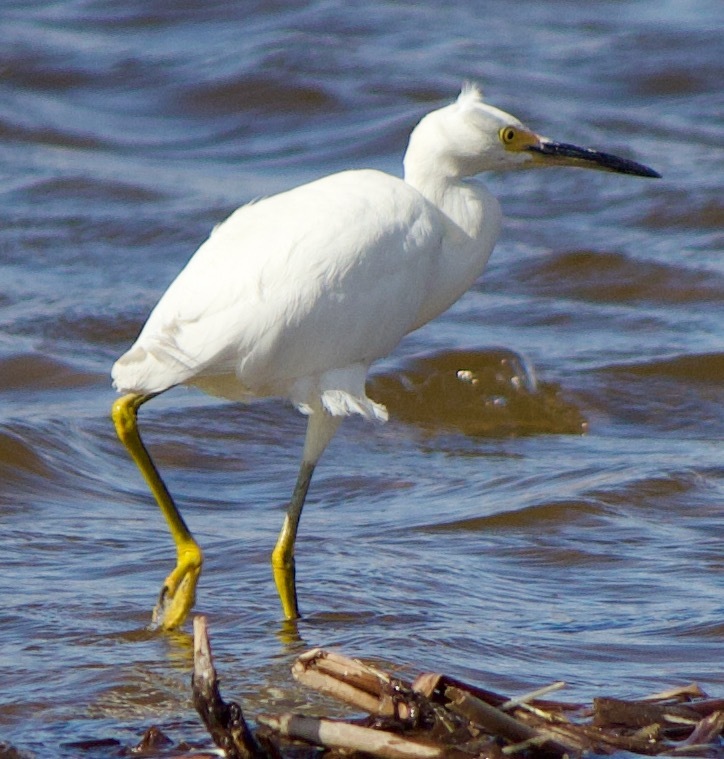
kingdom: Animalia
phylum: Chordata
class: Aves
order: Pelecaniformes
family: Ardeidae
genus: Egretta
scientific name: Egretta thula
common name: Snowy egret
